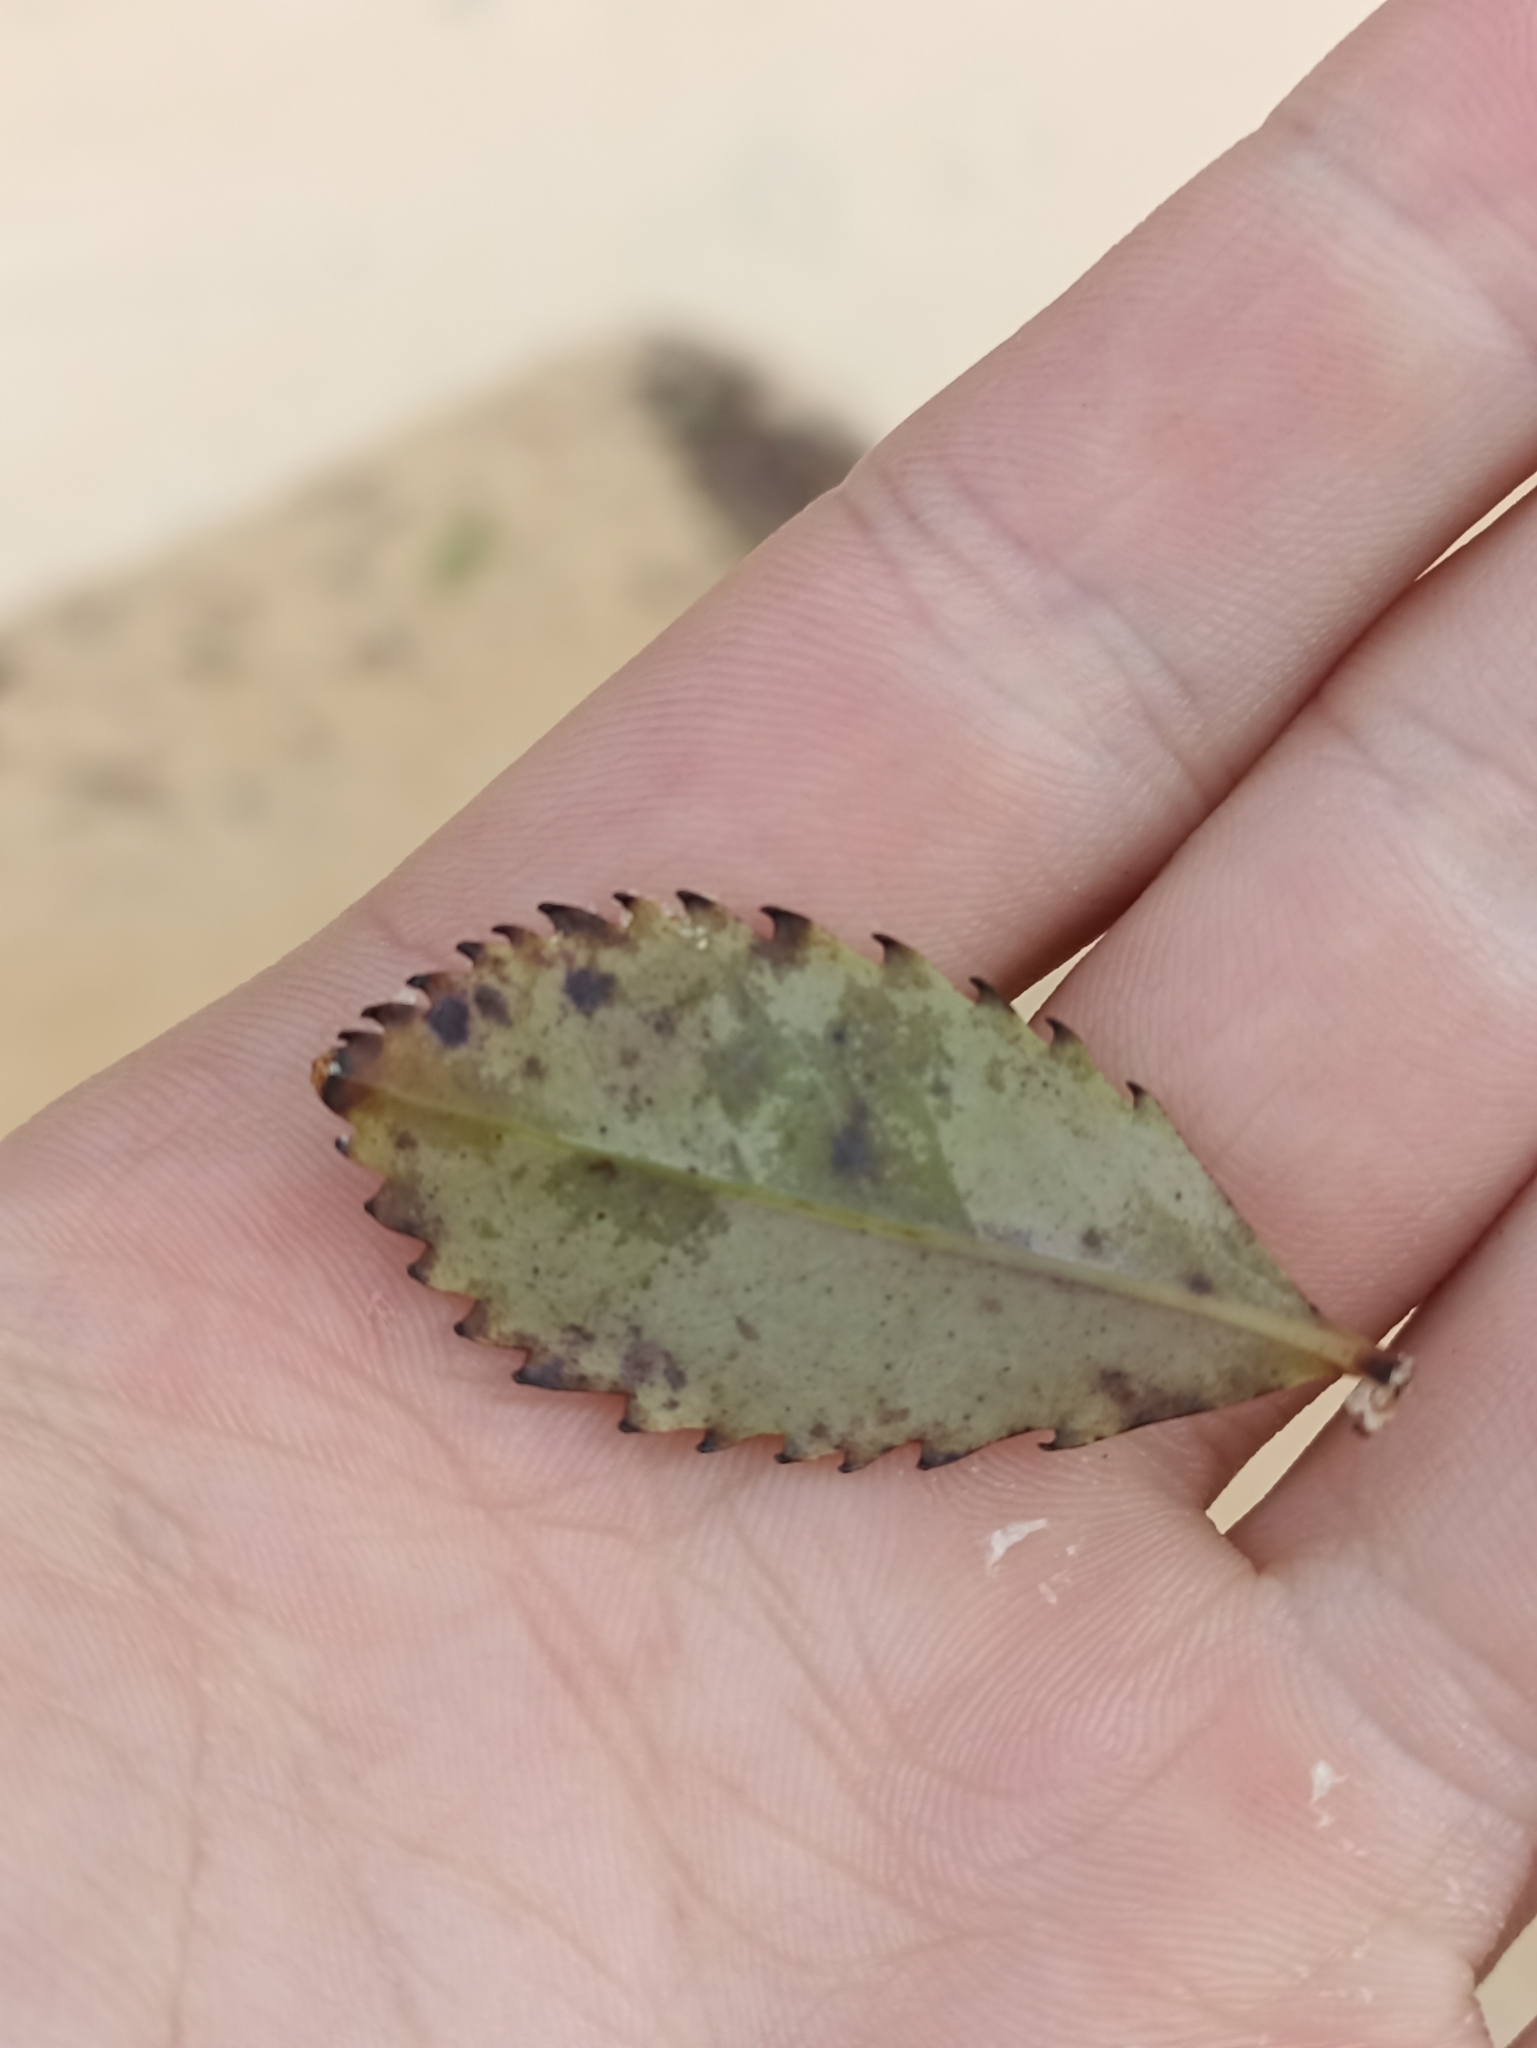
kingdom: Plantae
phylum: Tracheophyta
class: Magnoliopsida
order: Chloranthales
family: Chloranthaceae
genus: Ascarina
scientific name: Ascarina lucida
